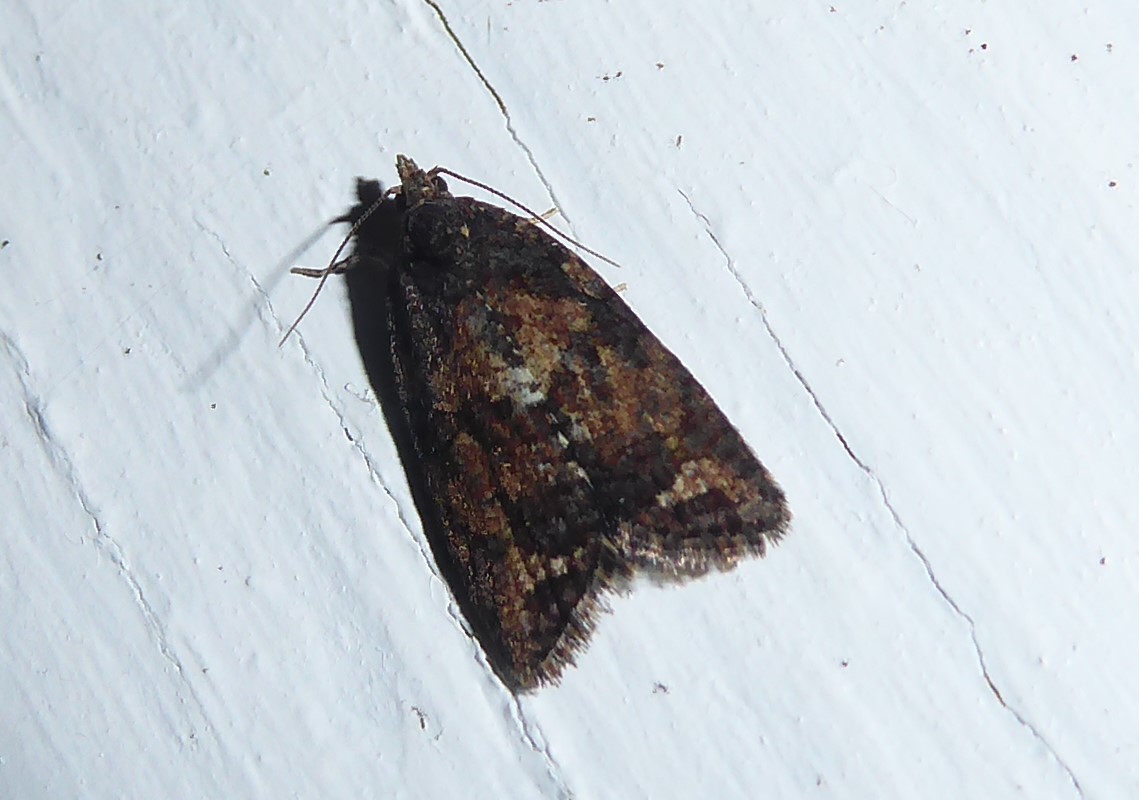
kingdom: Animalia
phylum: Arthropoda
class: Insecta
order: Lepidoptera
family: Tortricidae
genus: Capua
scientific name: Capua intractana
